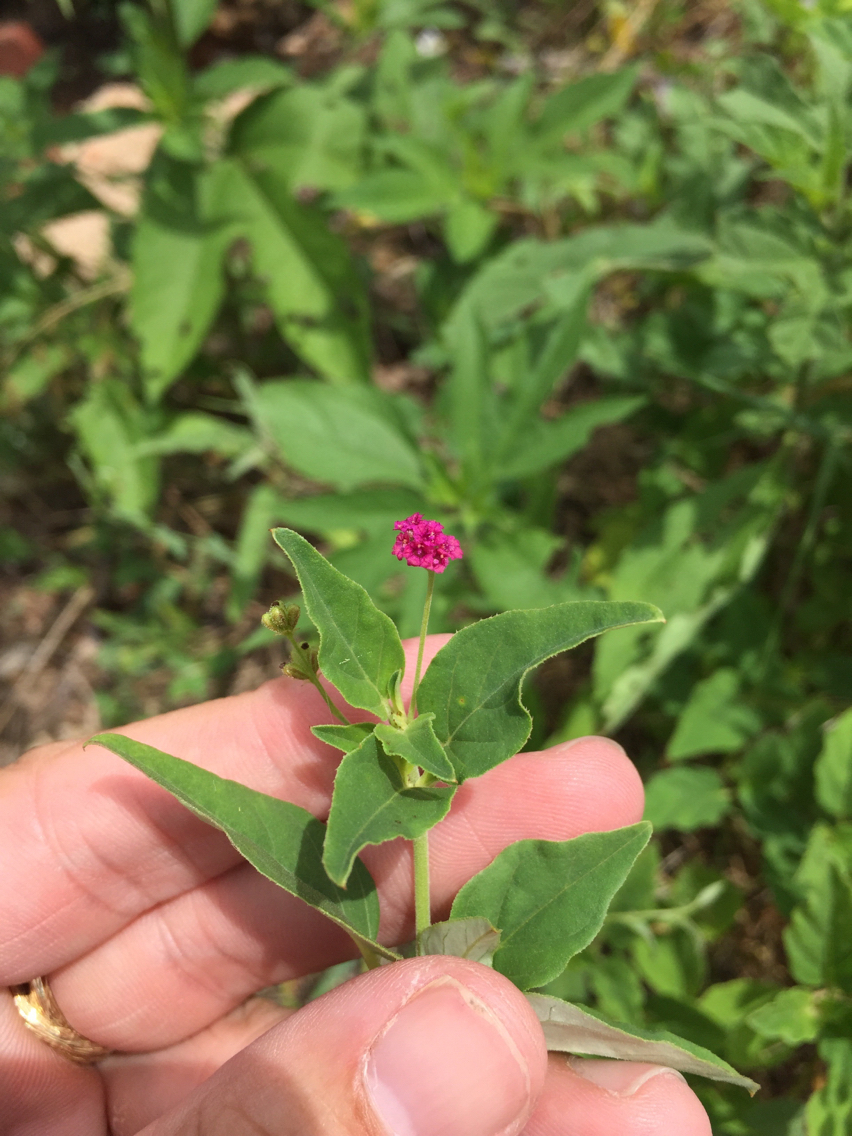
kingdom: Plantae
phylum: Tracheophyta
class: Magnoliopsida
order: Caryophyllales
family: Nyctaginaceae
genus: Boerhavia
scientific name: Boerhavia coccinea
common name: Scarlet spiderling
